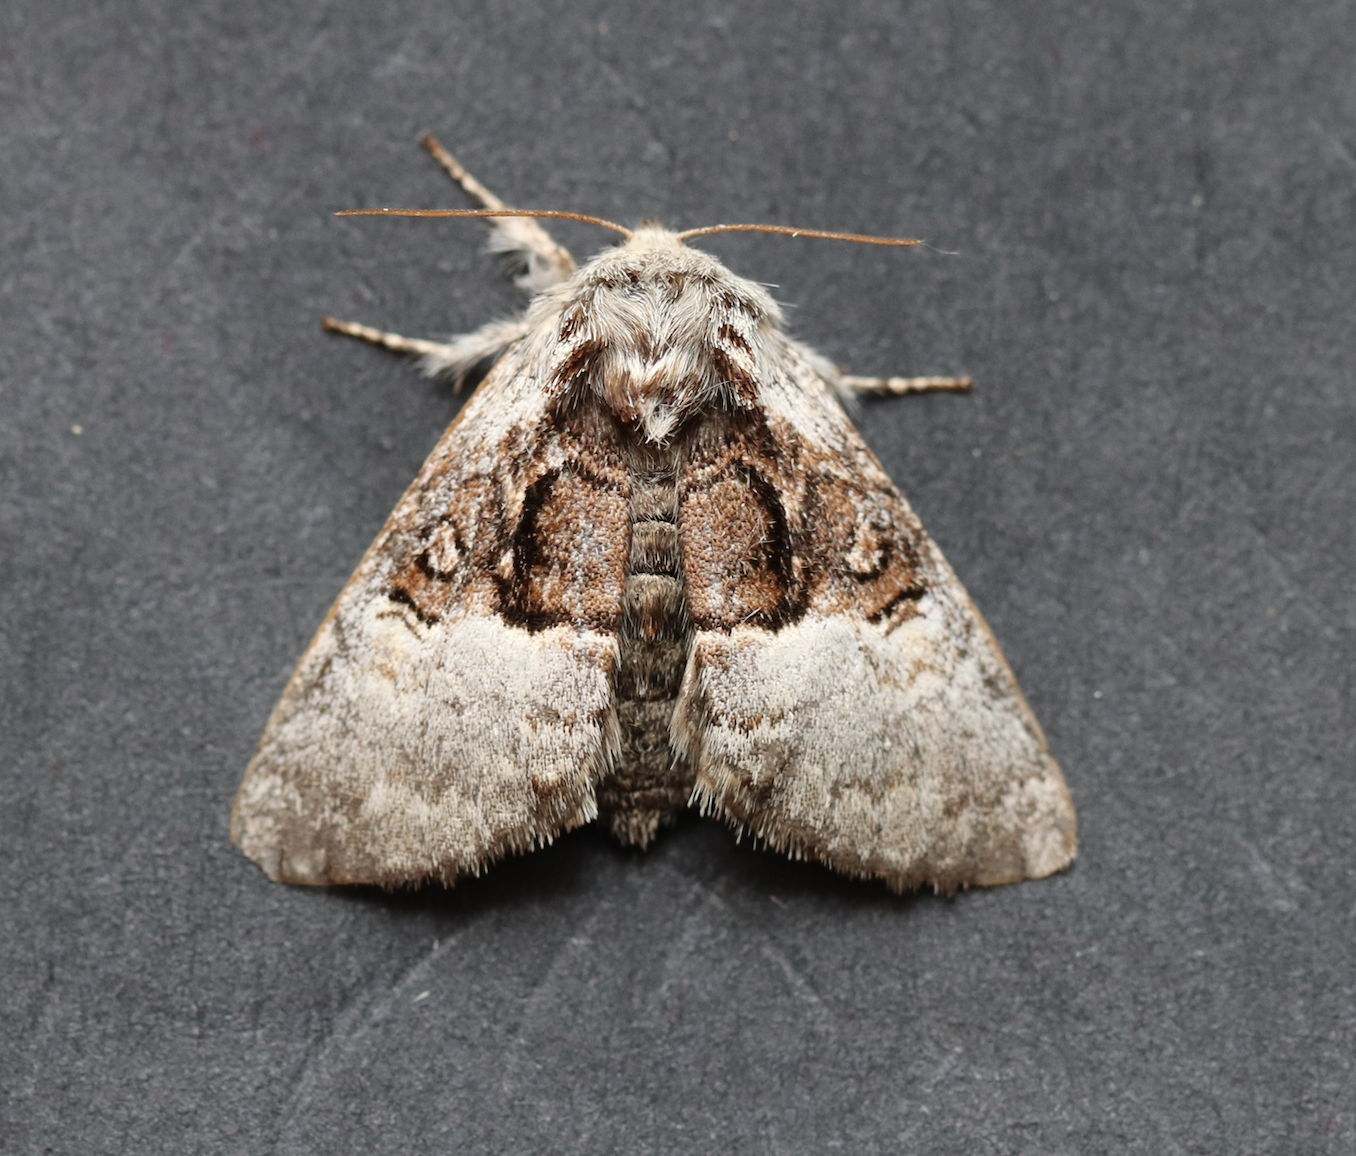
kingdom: Animalia
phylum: Arthropoda
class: Insecta
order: Lepidoptera
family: Noctuidae
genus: Colocasia
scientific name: Colocasia coryli
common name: Nut-tree tussock
